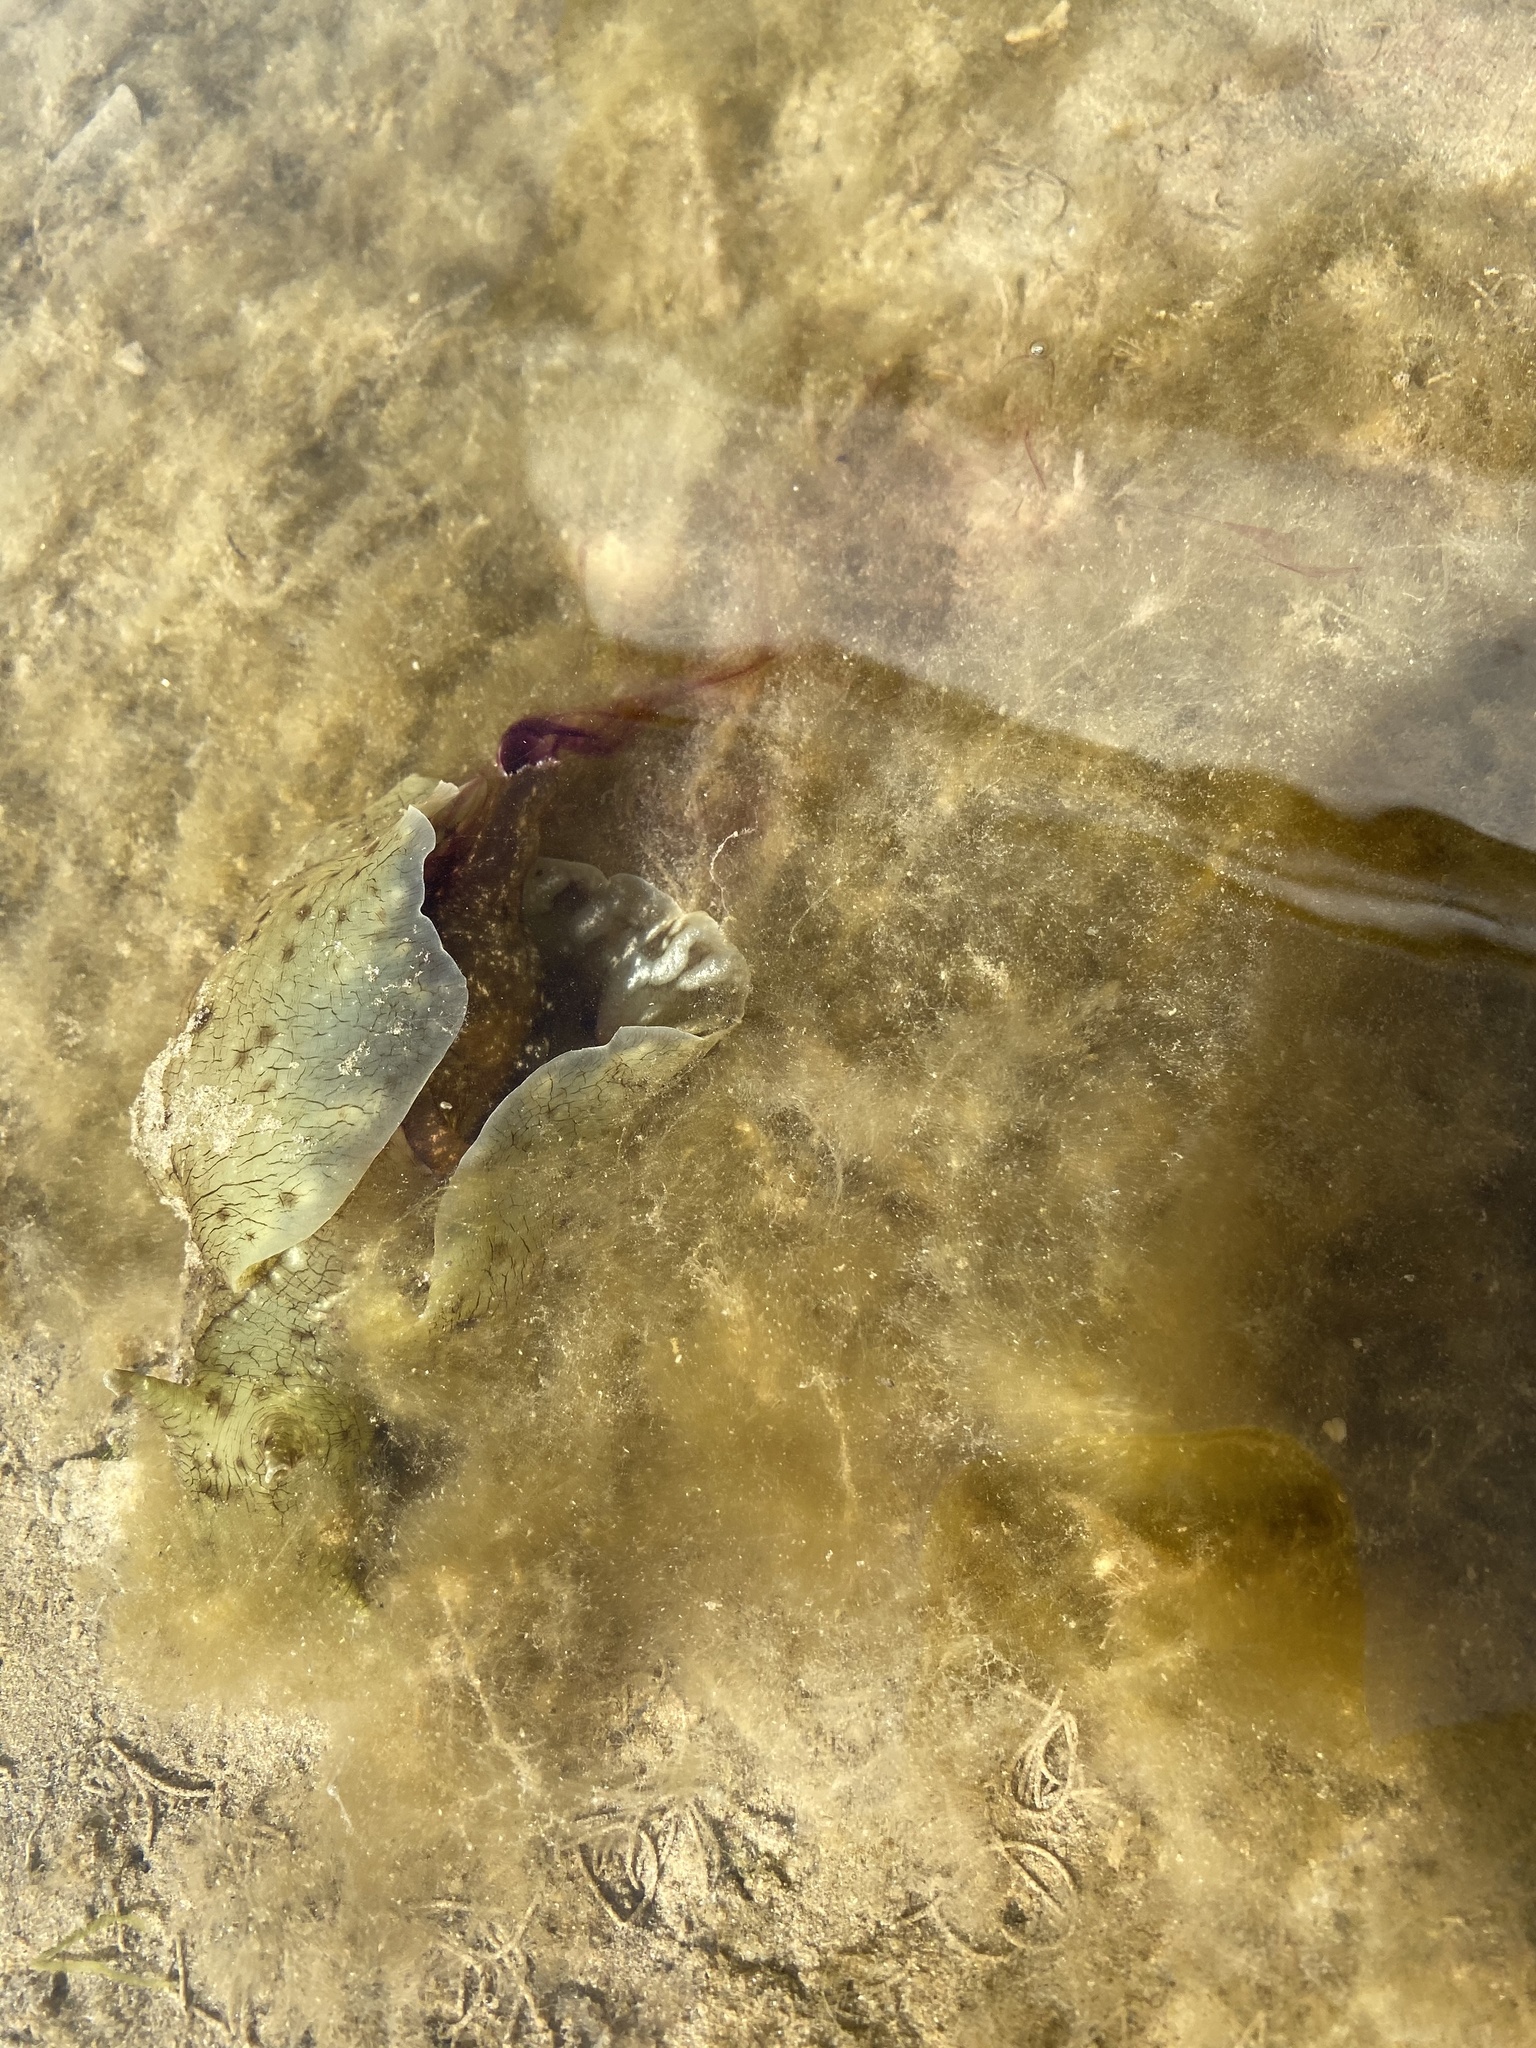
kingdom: Animalia
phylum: Mollusca
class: Gastropoda
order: Aplysiida
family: Aplysiidae
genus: Aplysia
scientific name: Aplysia californica
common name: California seahare
